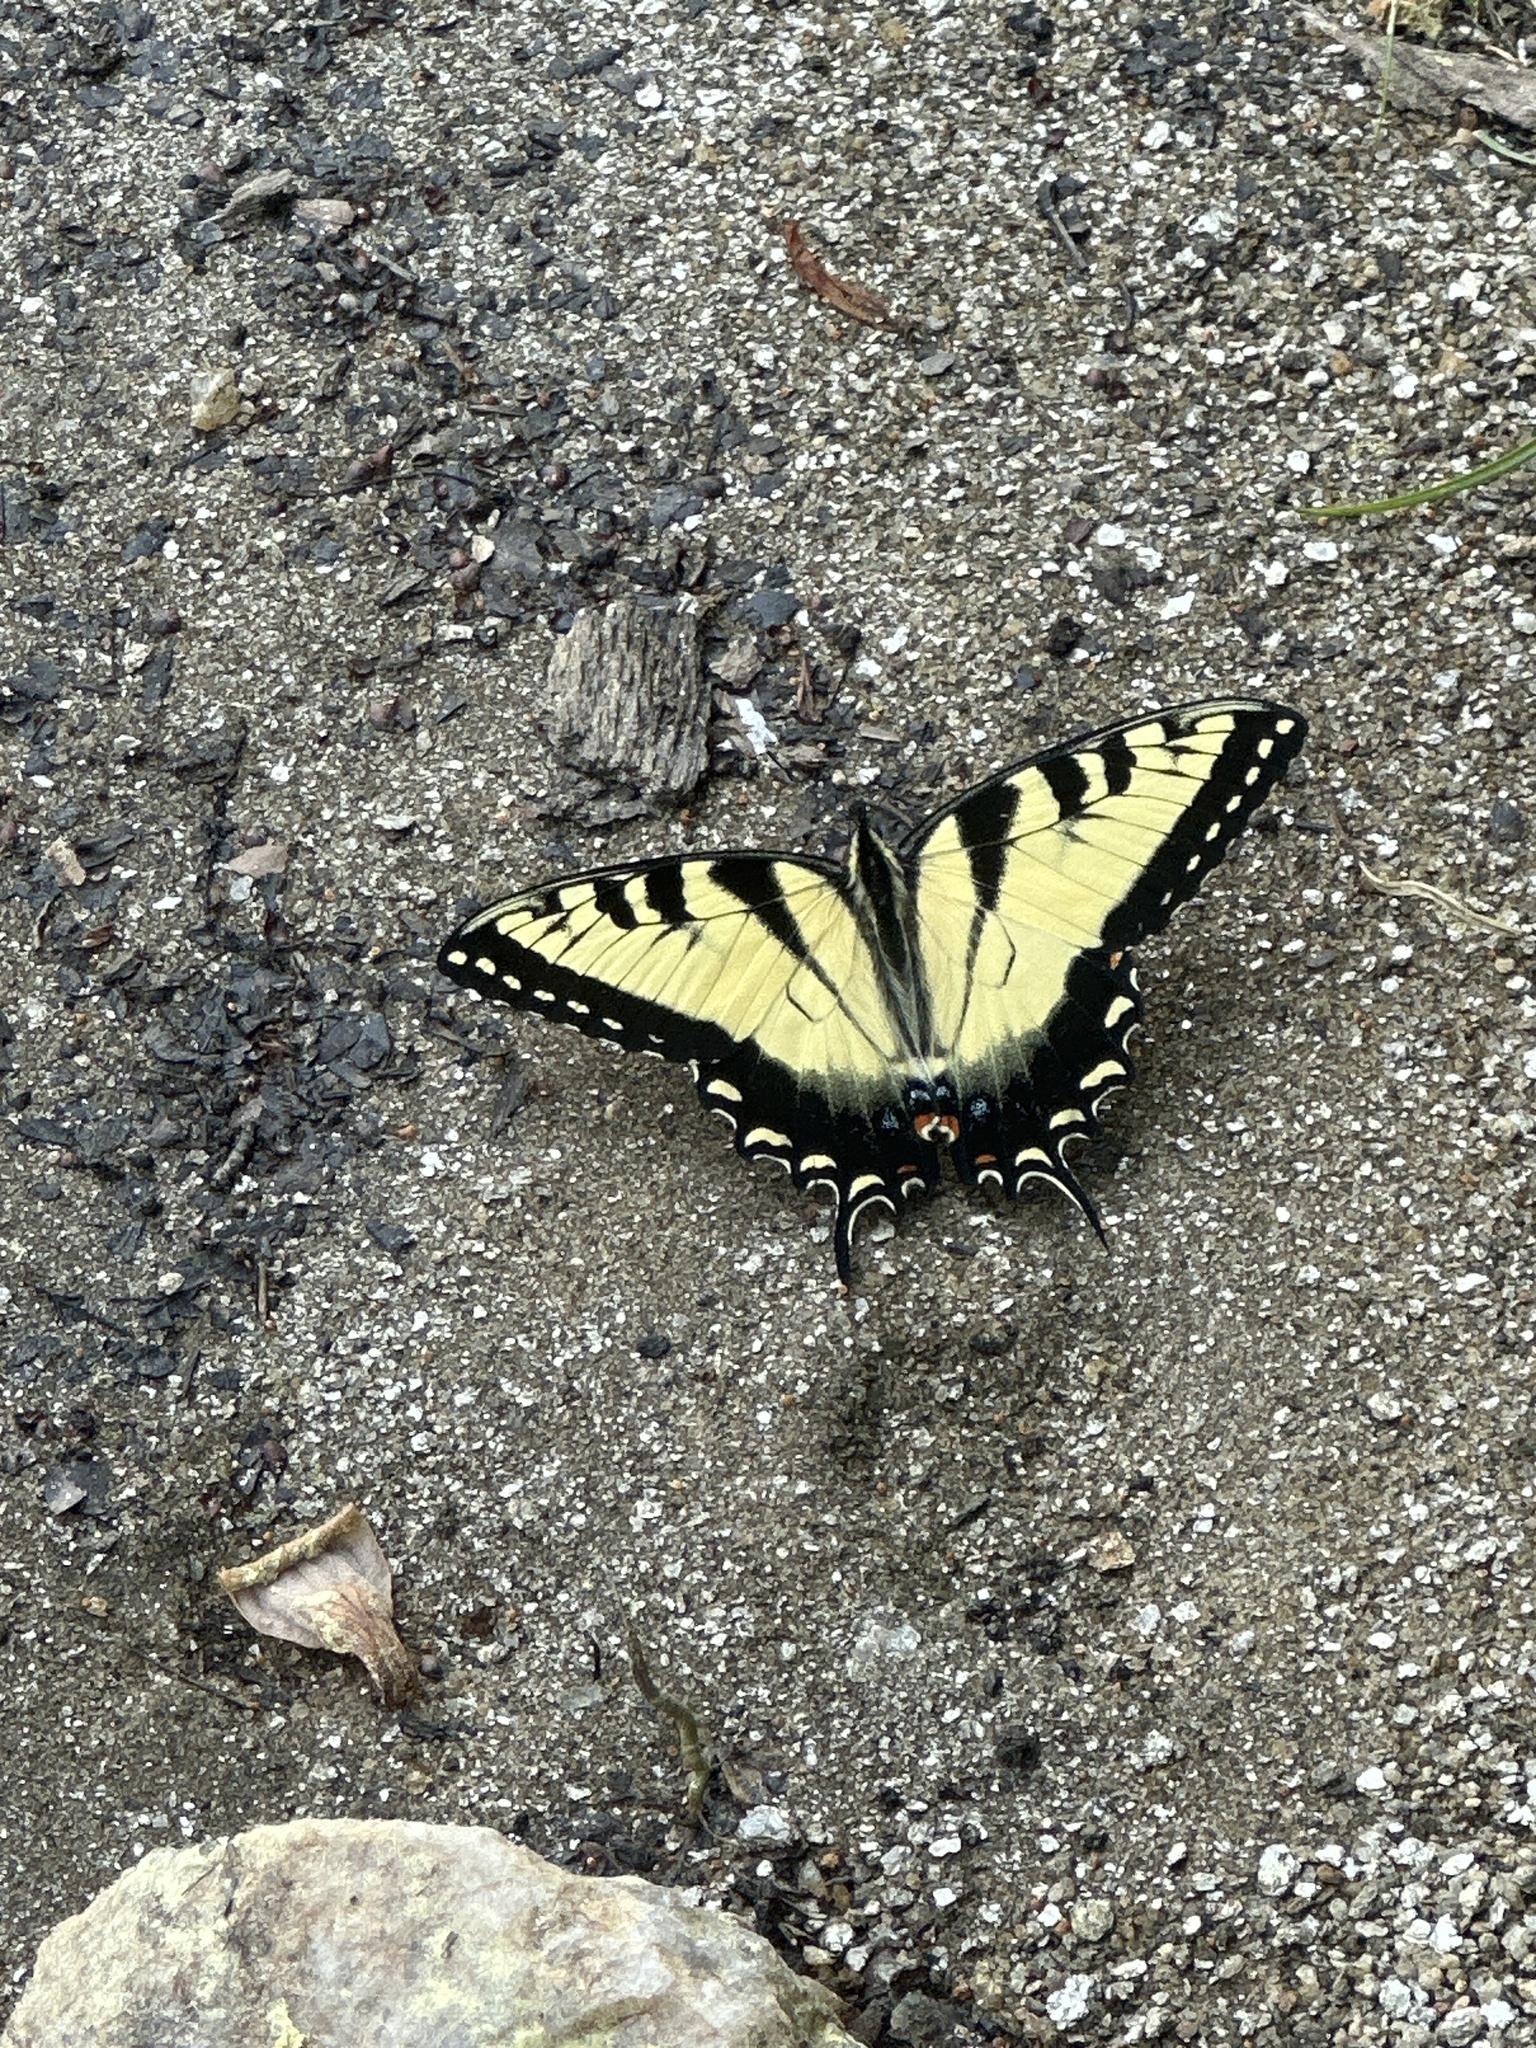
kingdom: Animalia
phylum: Arthropoda
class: Insecta
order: Lepidoptera
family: Papilionidae
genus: Papilio
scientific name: Papilio glaucus
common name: Tiger swallowtail
